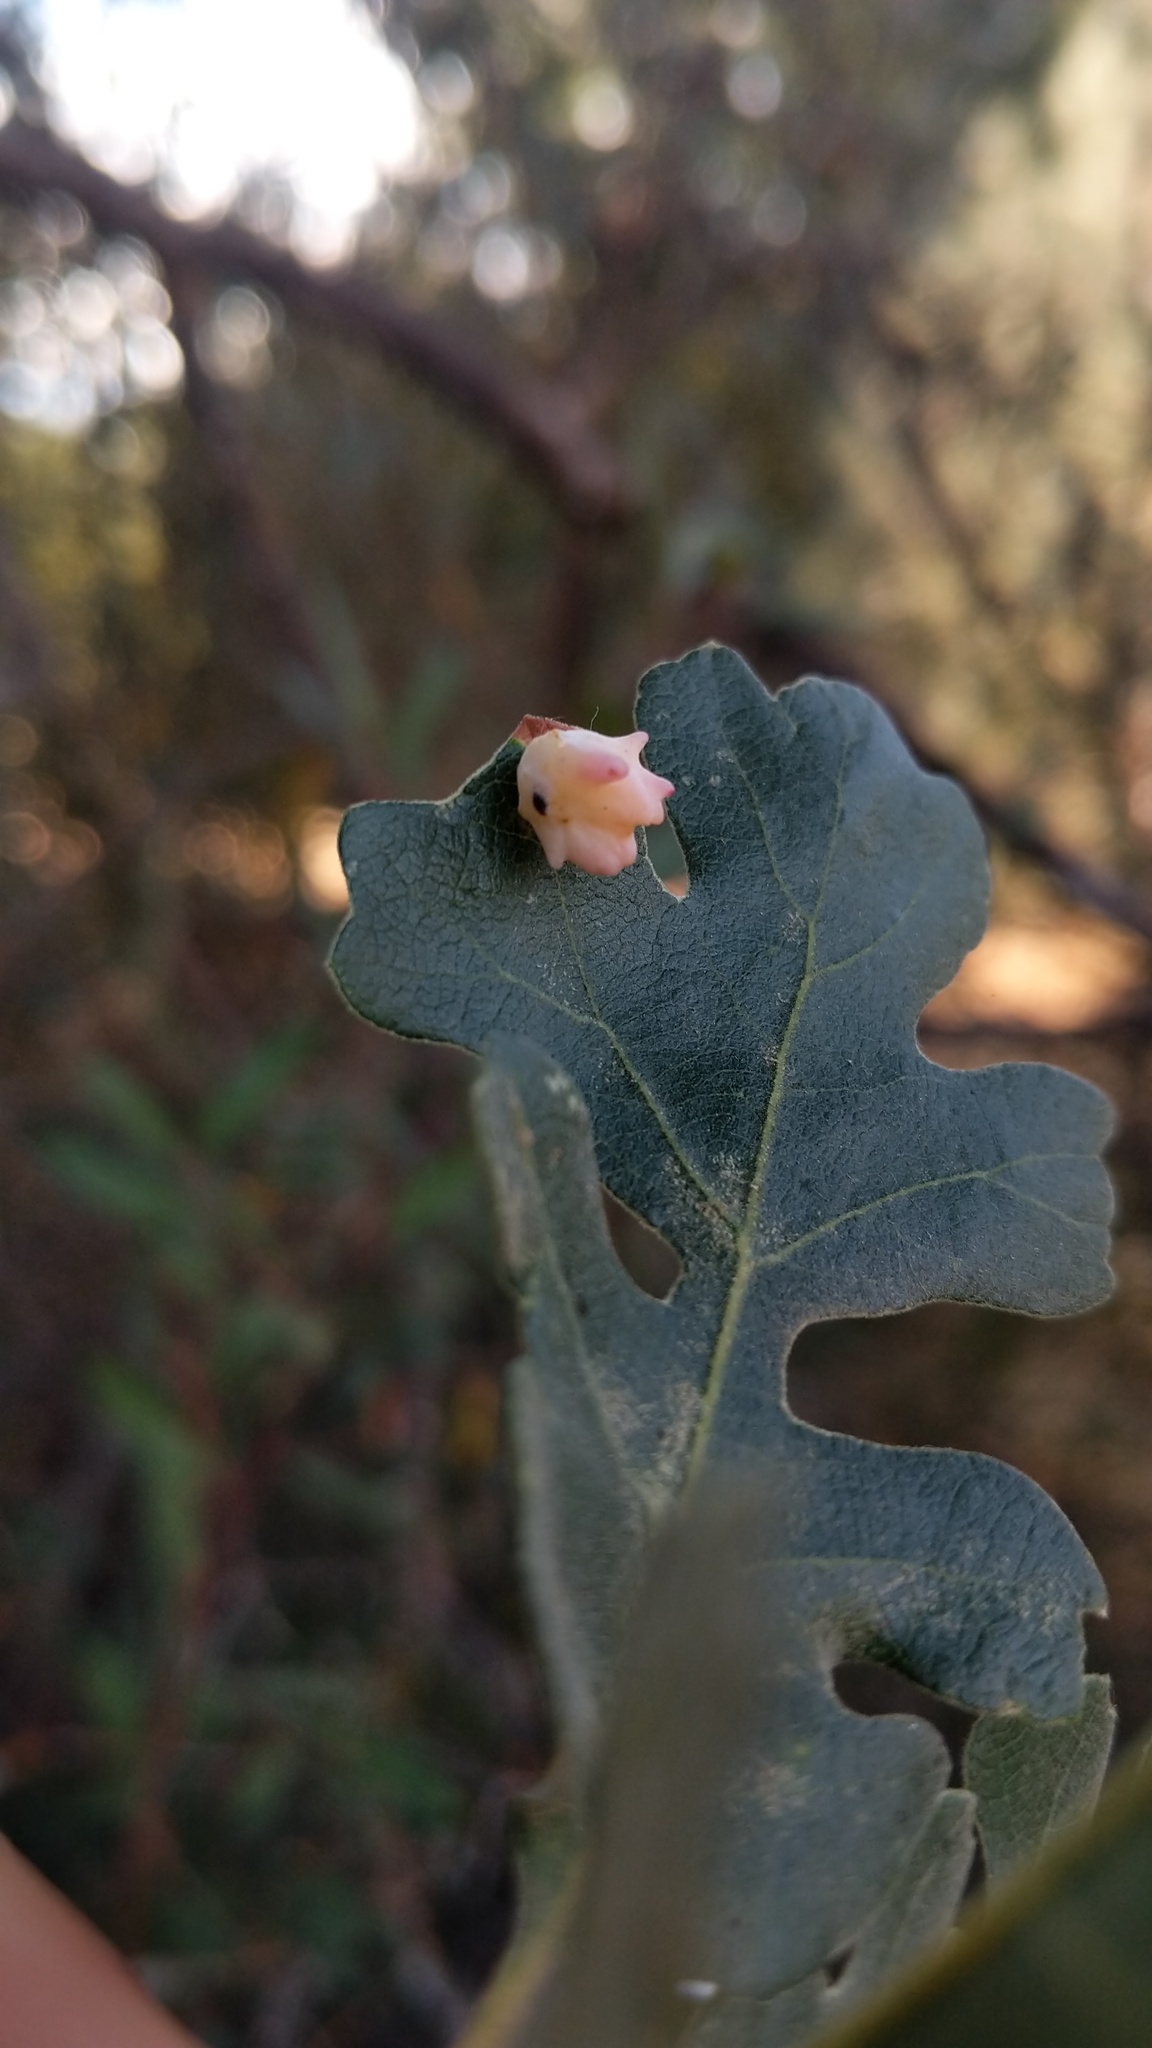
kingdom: Animalia
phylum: Arthropoda
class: Insecta
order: Hymenoptera
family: Cynipidae
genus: Cynips
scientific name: Cynips douglasi
